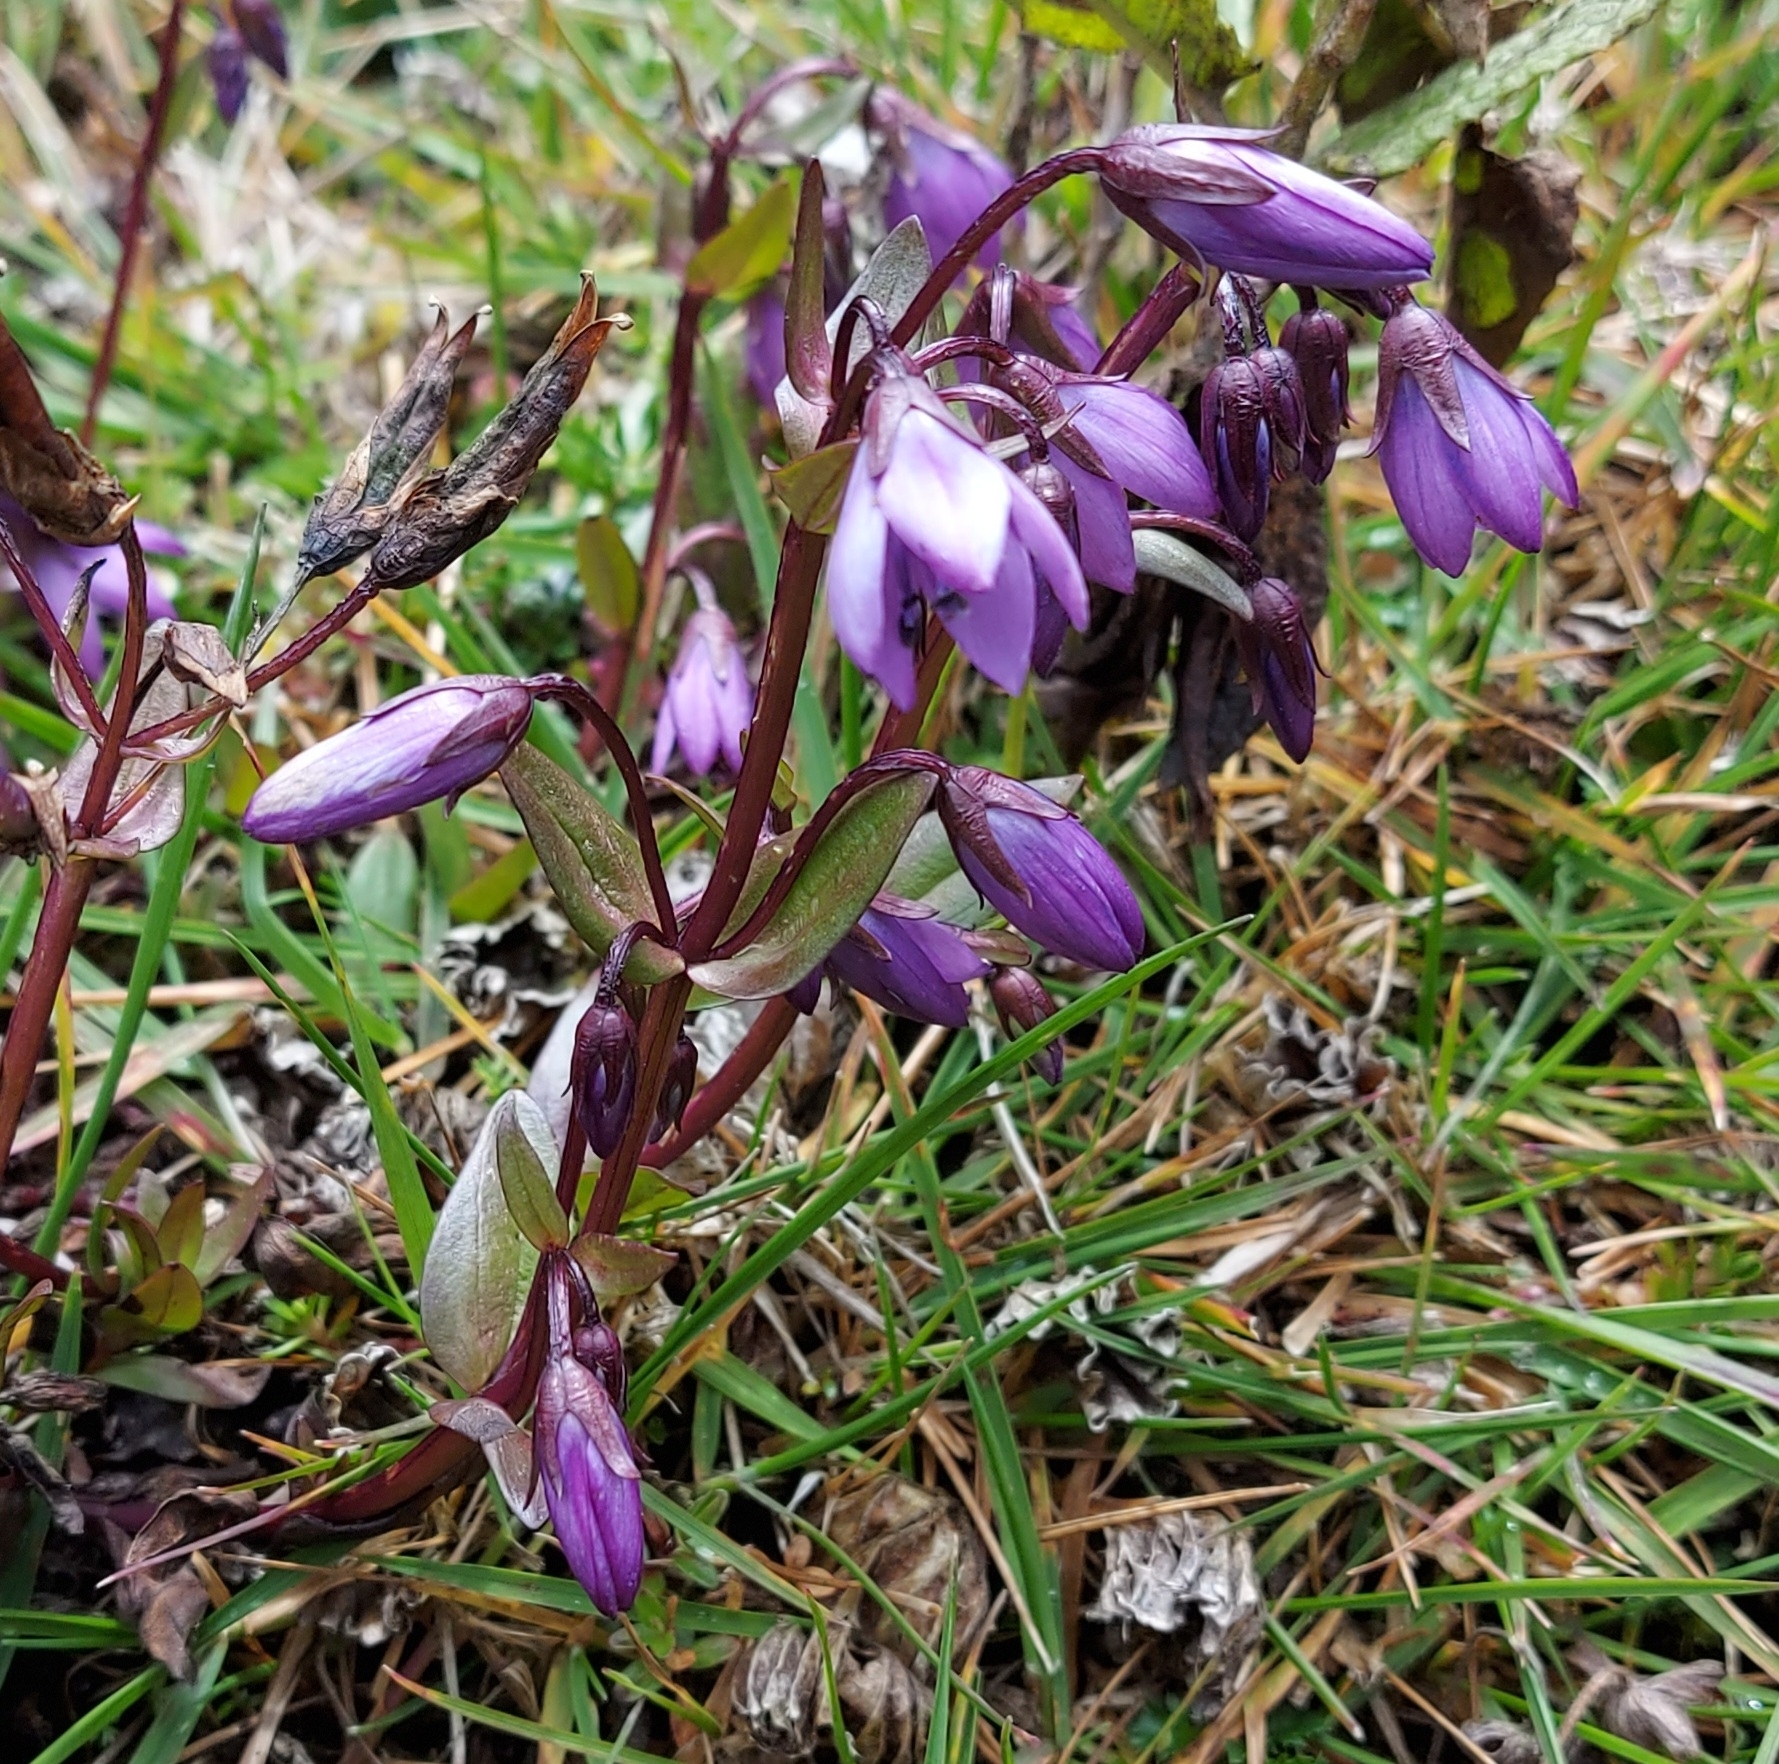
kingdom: Plantae
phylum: Tracheophyta
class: Magnoliopsida
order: Gentianales
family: Gentianaceae
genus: Gentianella
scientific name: Gentianella rapunculoides
